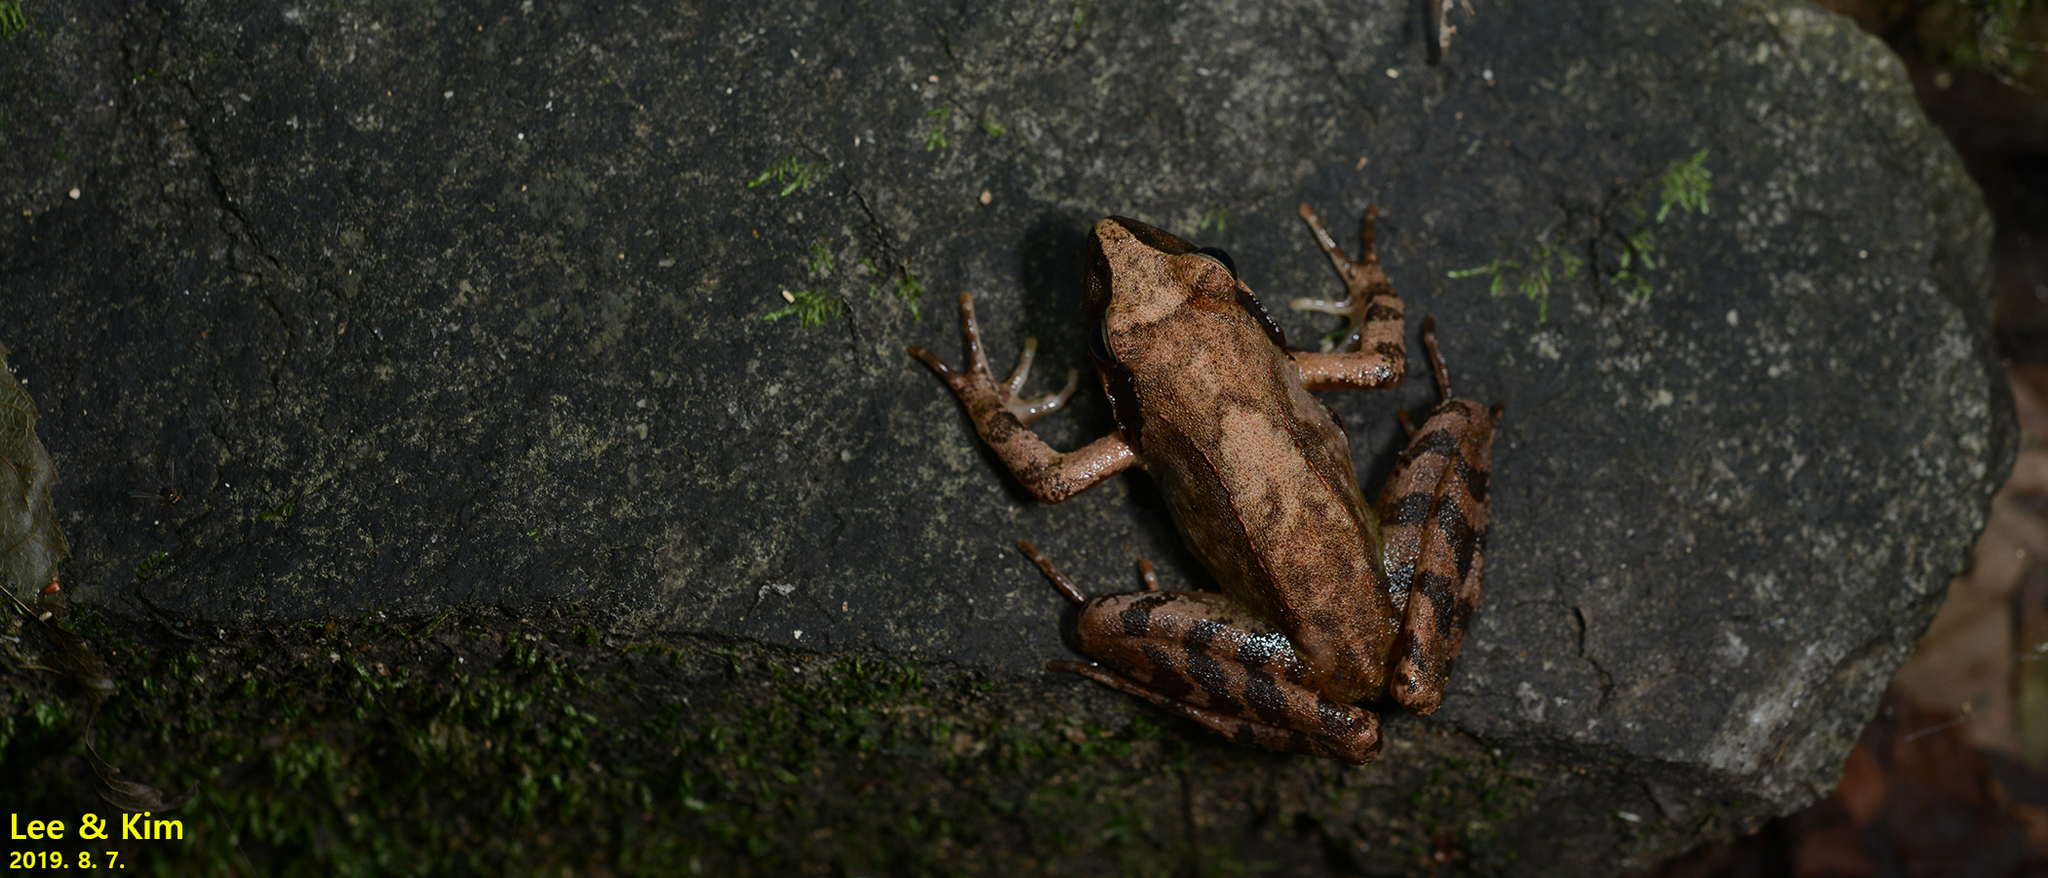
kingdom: Animalia
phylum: Chordata
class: Amphibia
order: Anura
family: Ranidae
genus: Rana
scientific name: Rana uenoi
